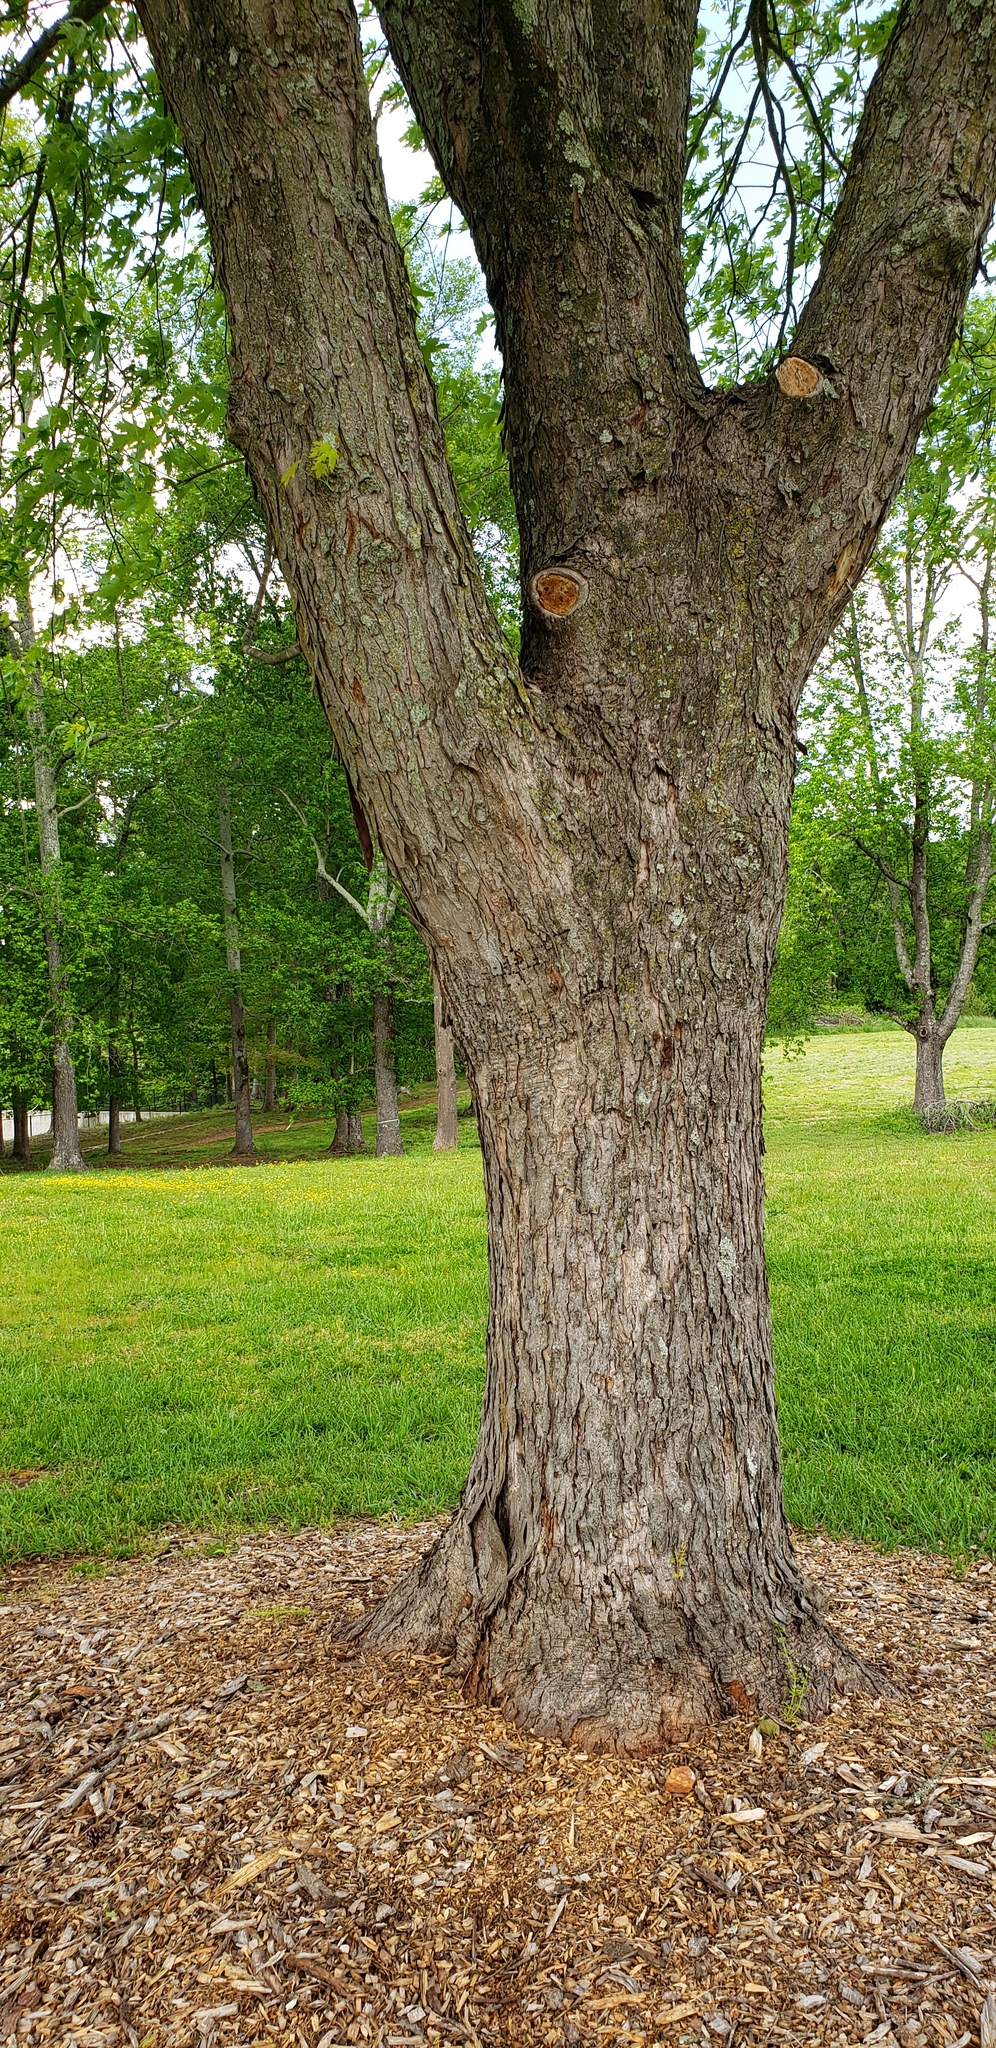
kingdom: Plantae
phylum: Tracheophyta
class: Magnoliopsida
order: Sapindales
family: Sapindaceae
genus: Acer
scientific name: Acer saccharinum
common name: Silver maple
